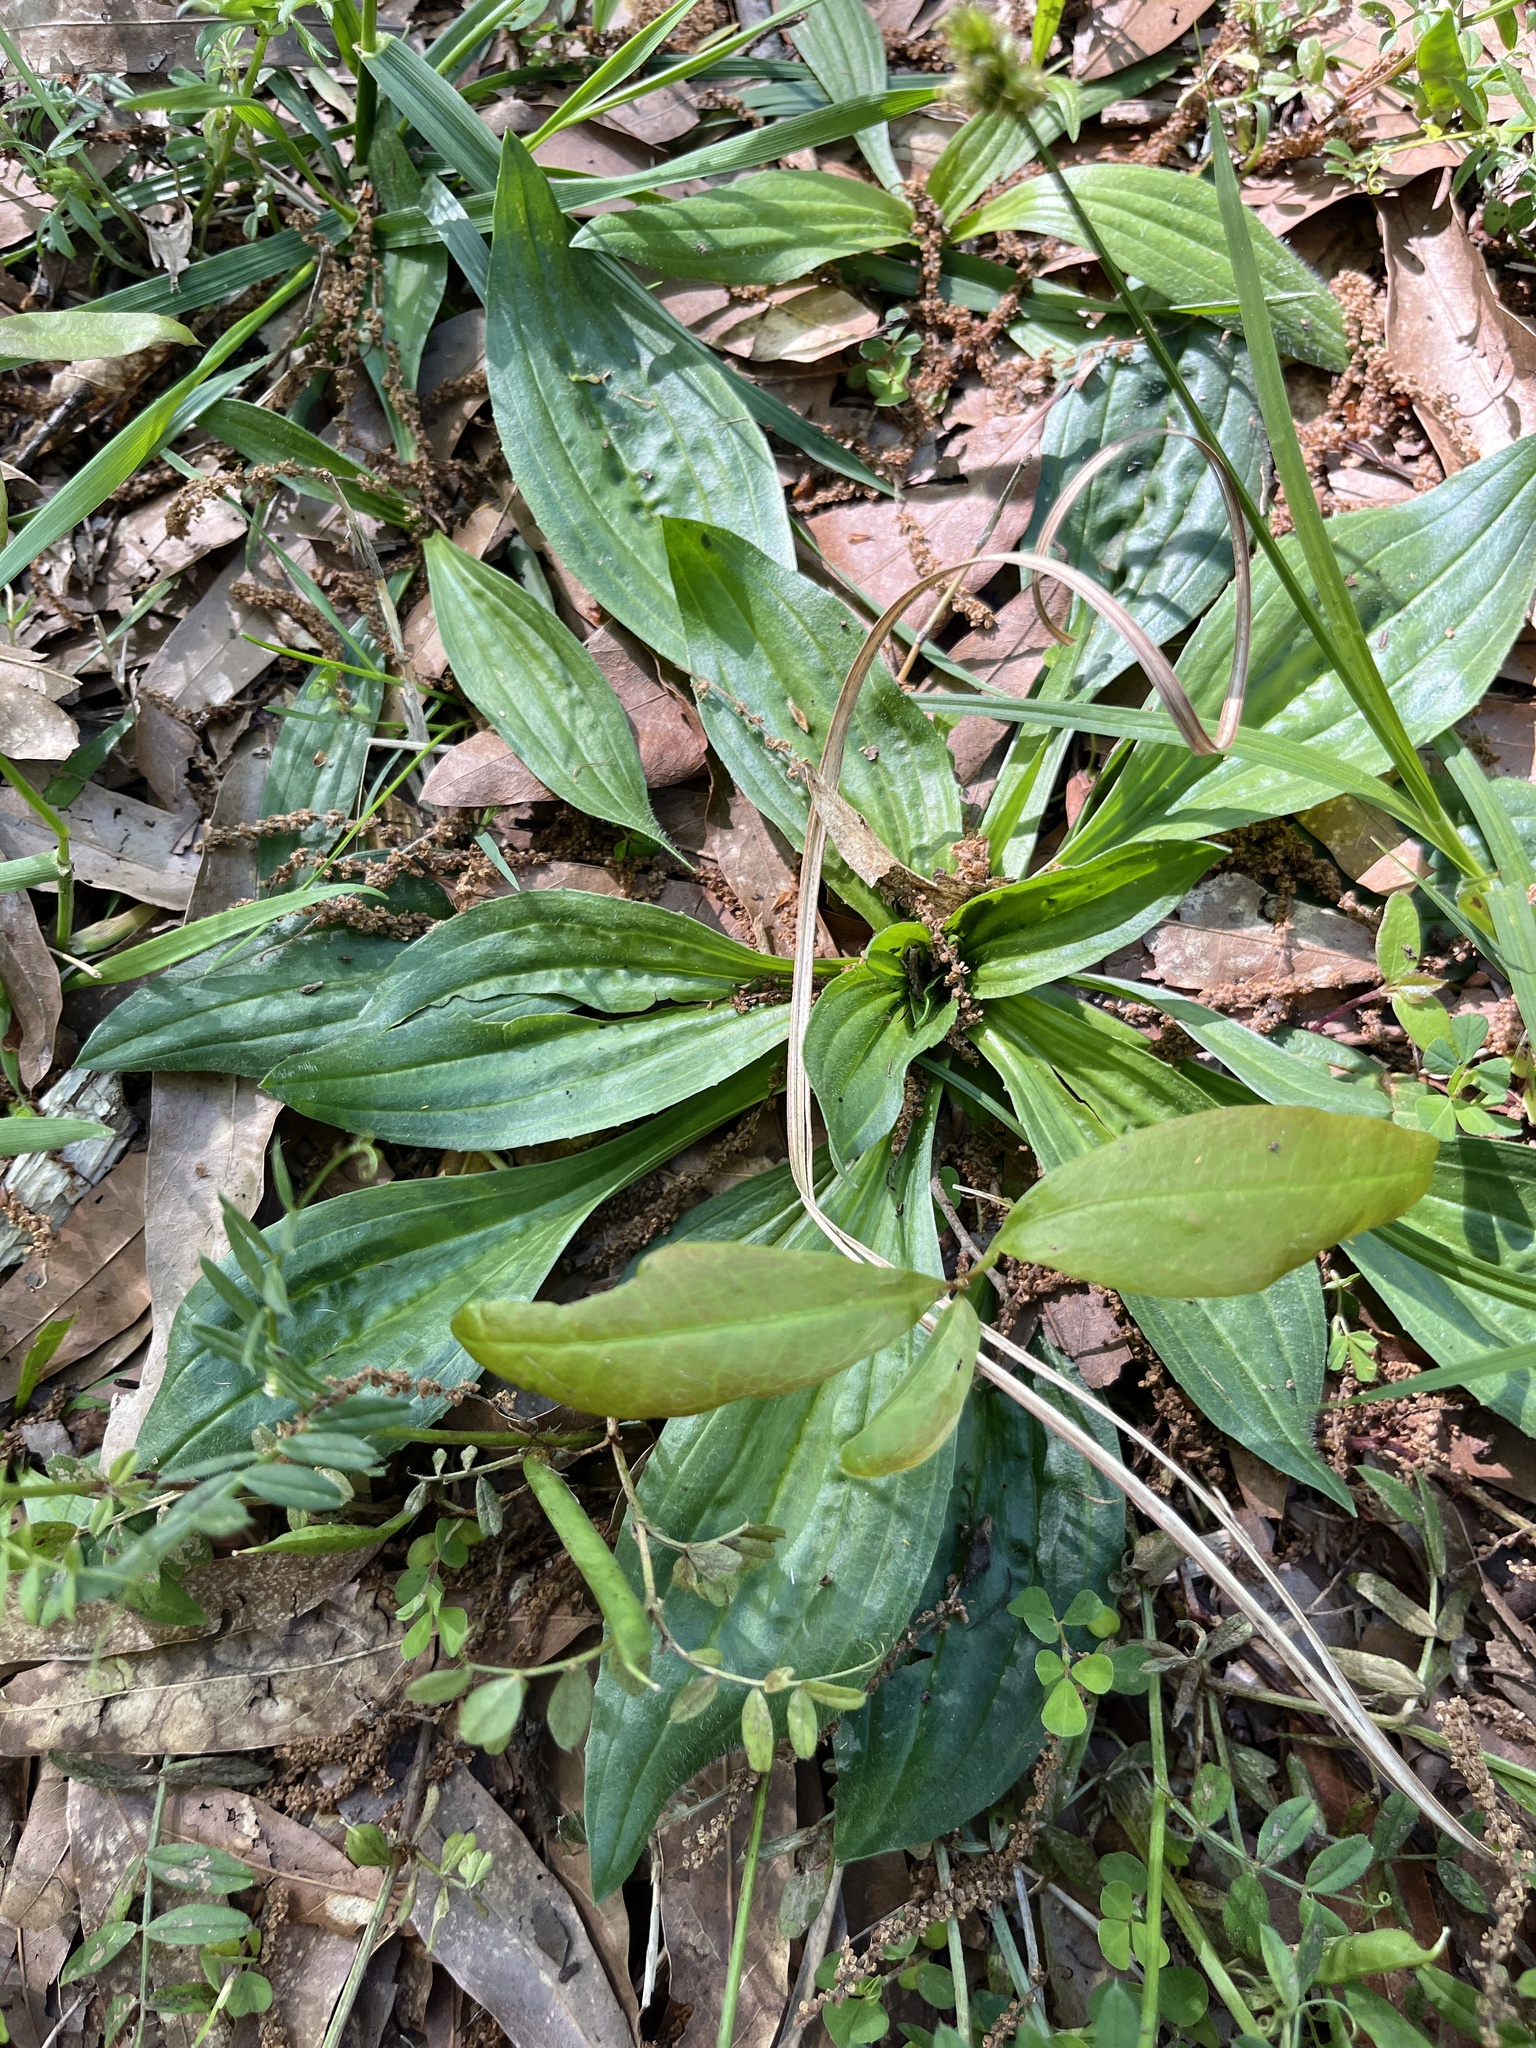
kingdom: Plantae
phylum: Tracheophyta
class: Magnoliopsida
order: Lamiales
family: Plantaginaceae
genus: Plantago
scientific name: Plantago lanceolata
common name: Ribwort plantain
